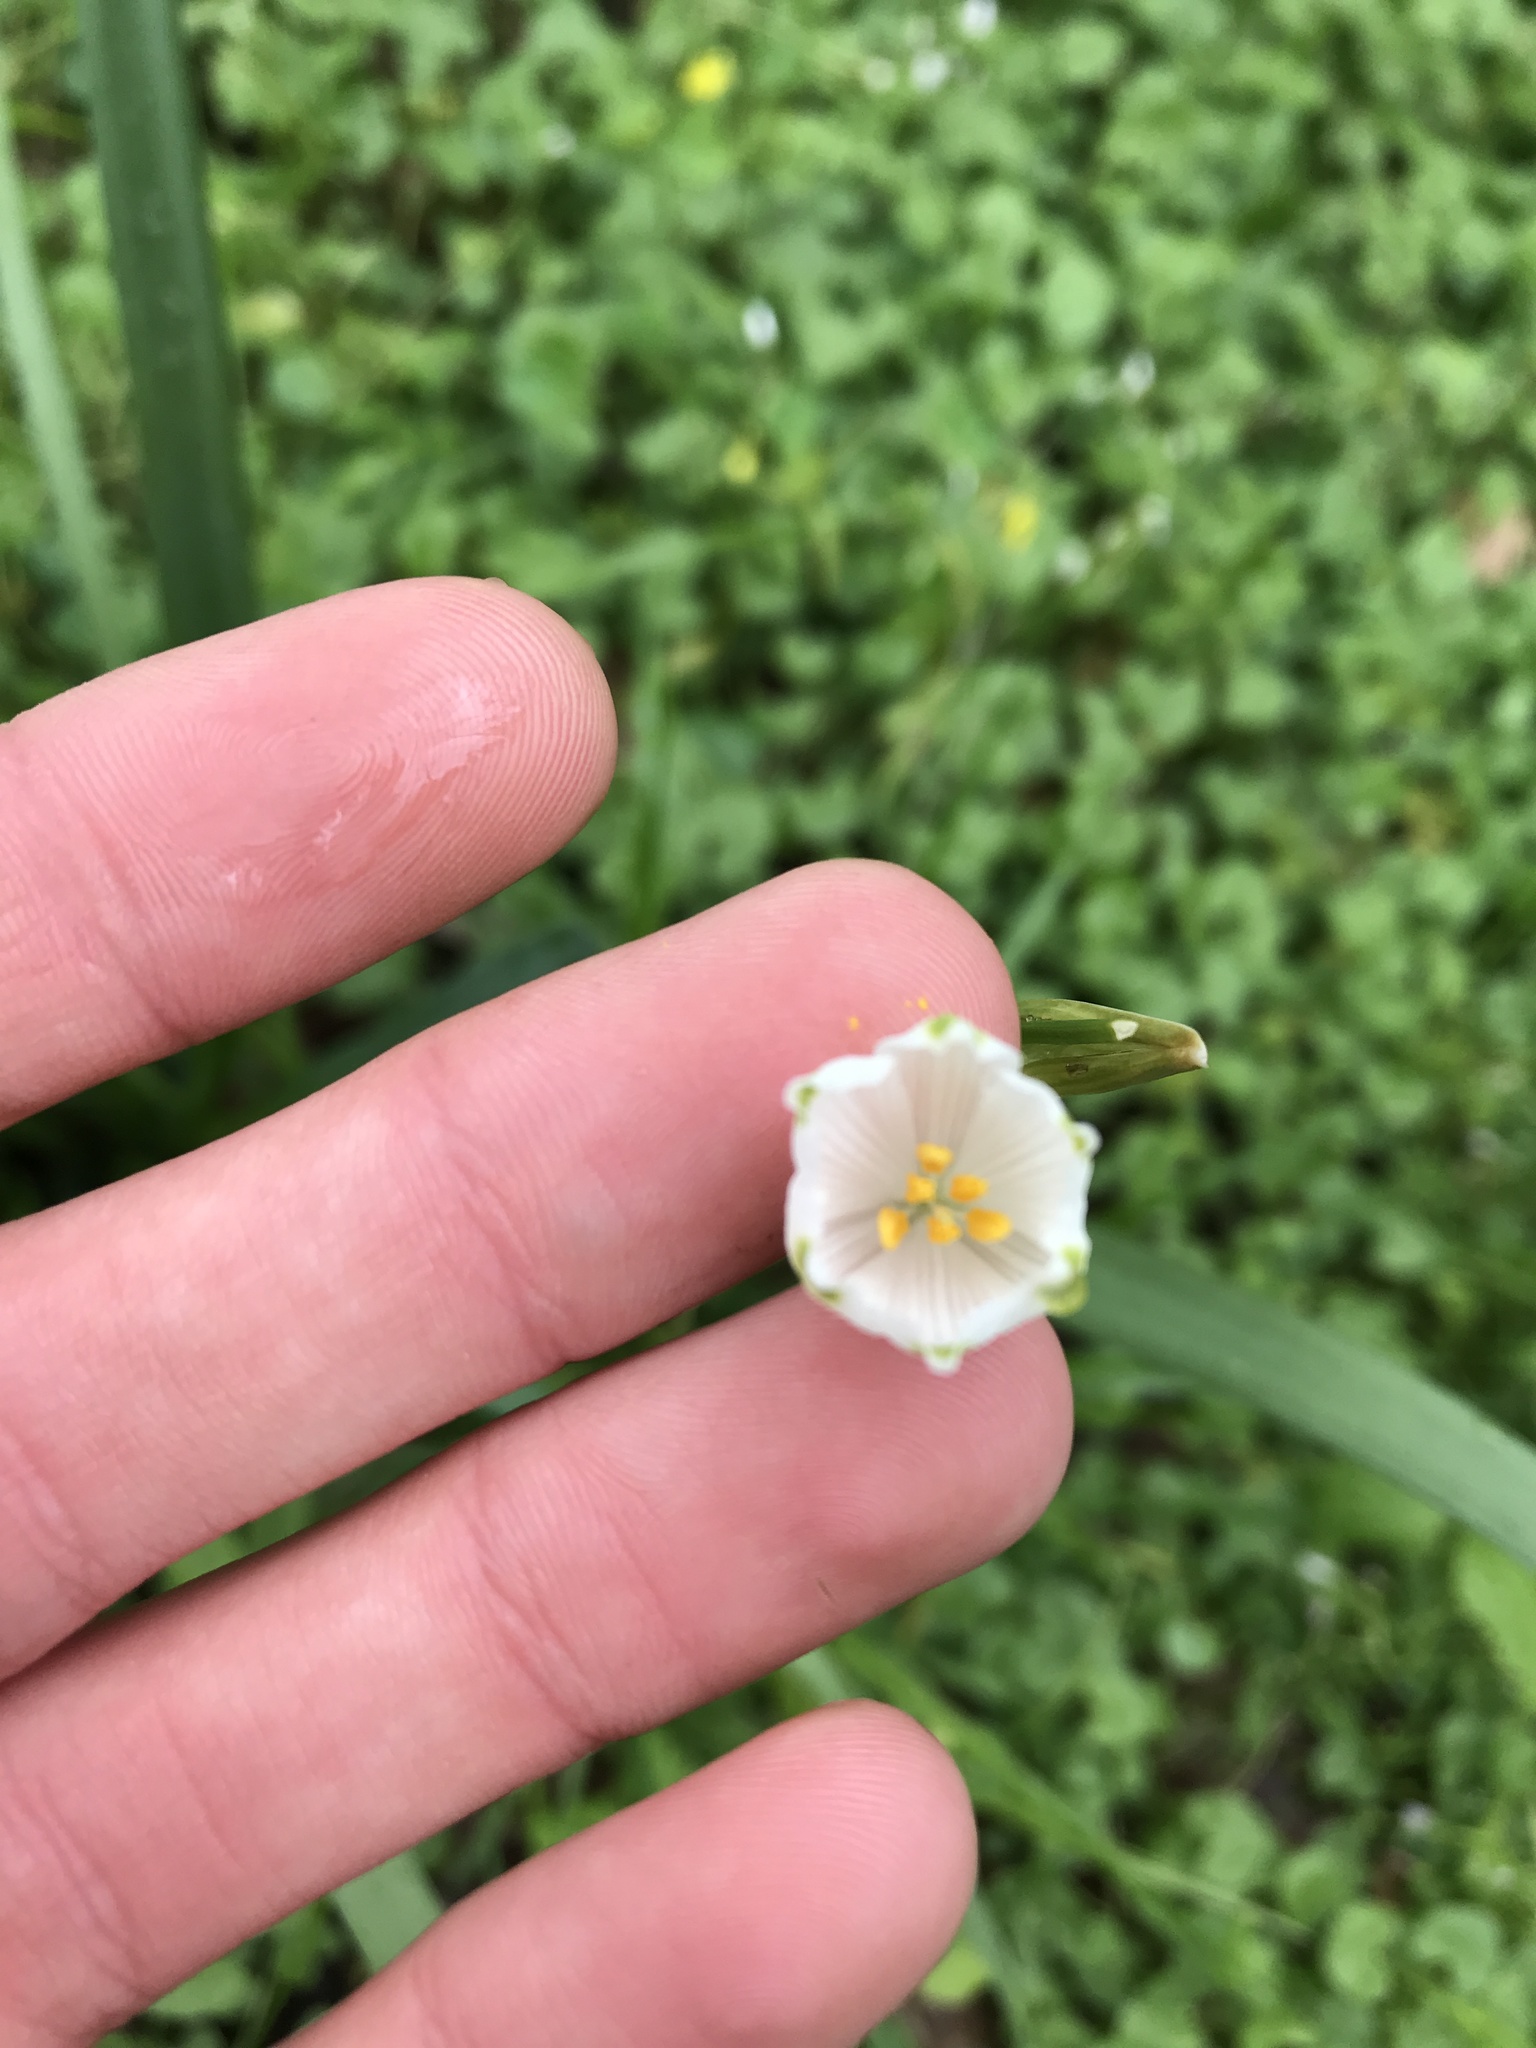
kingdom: Plantae
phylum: Tracheophyta
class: Liliopsida
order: Asparagales
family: Amaryllidaceae
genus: Leucojum
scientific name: Leucojum aestivum
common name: Summer snowflake
